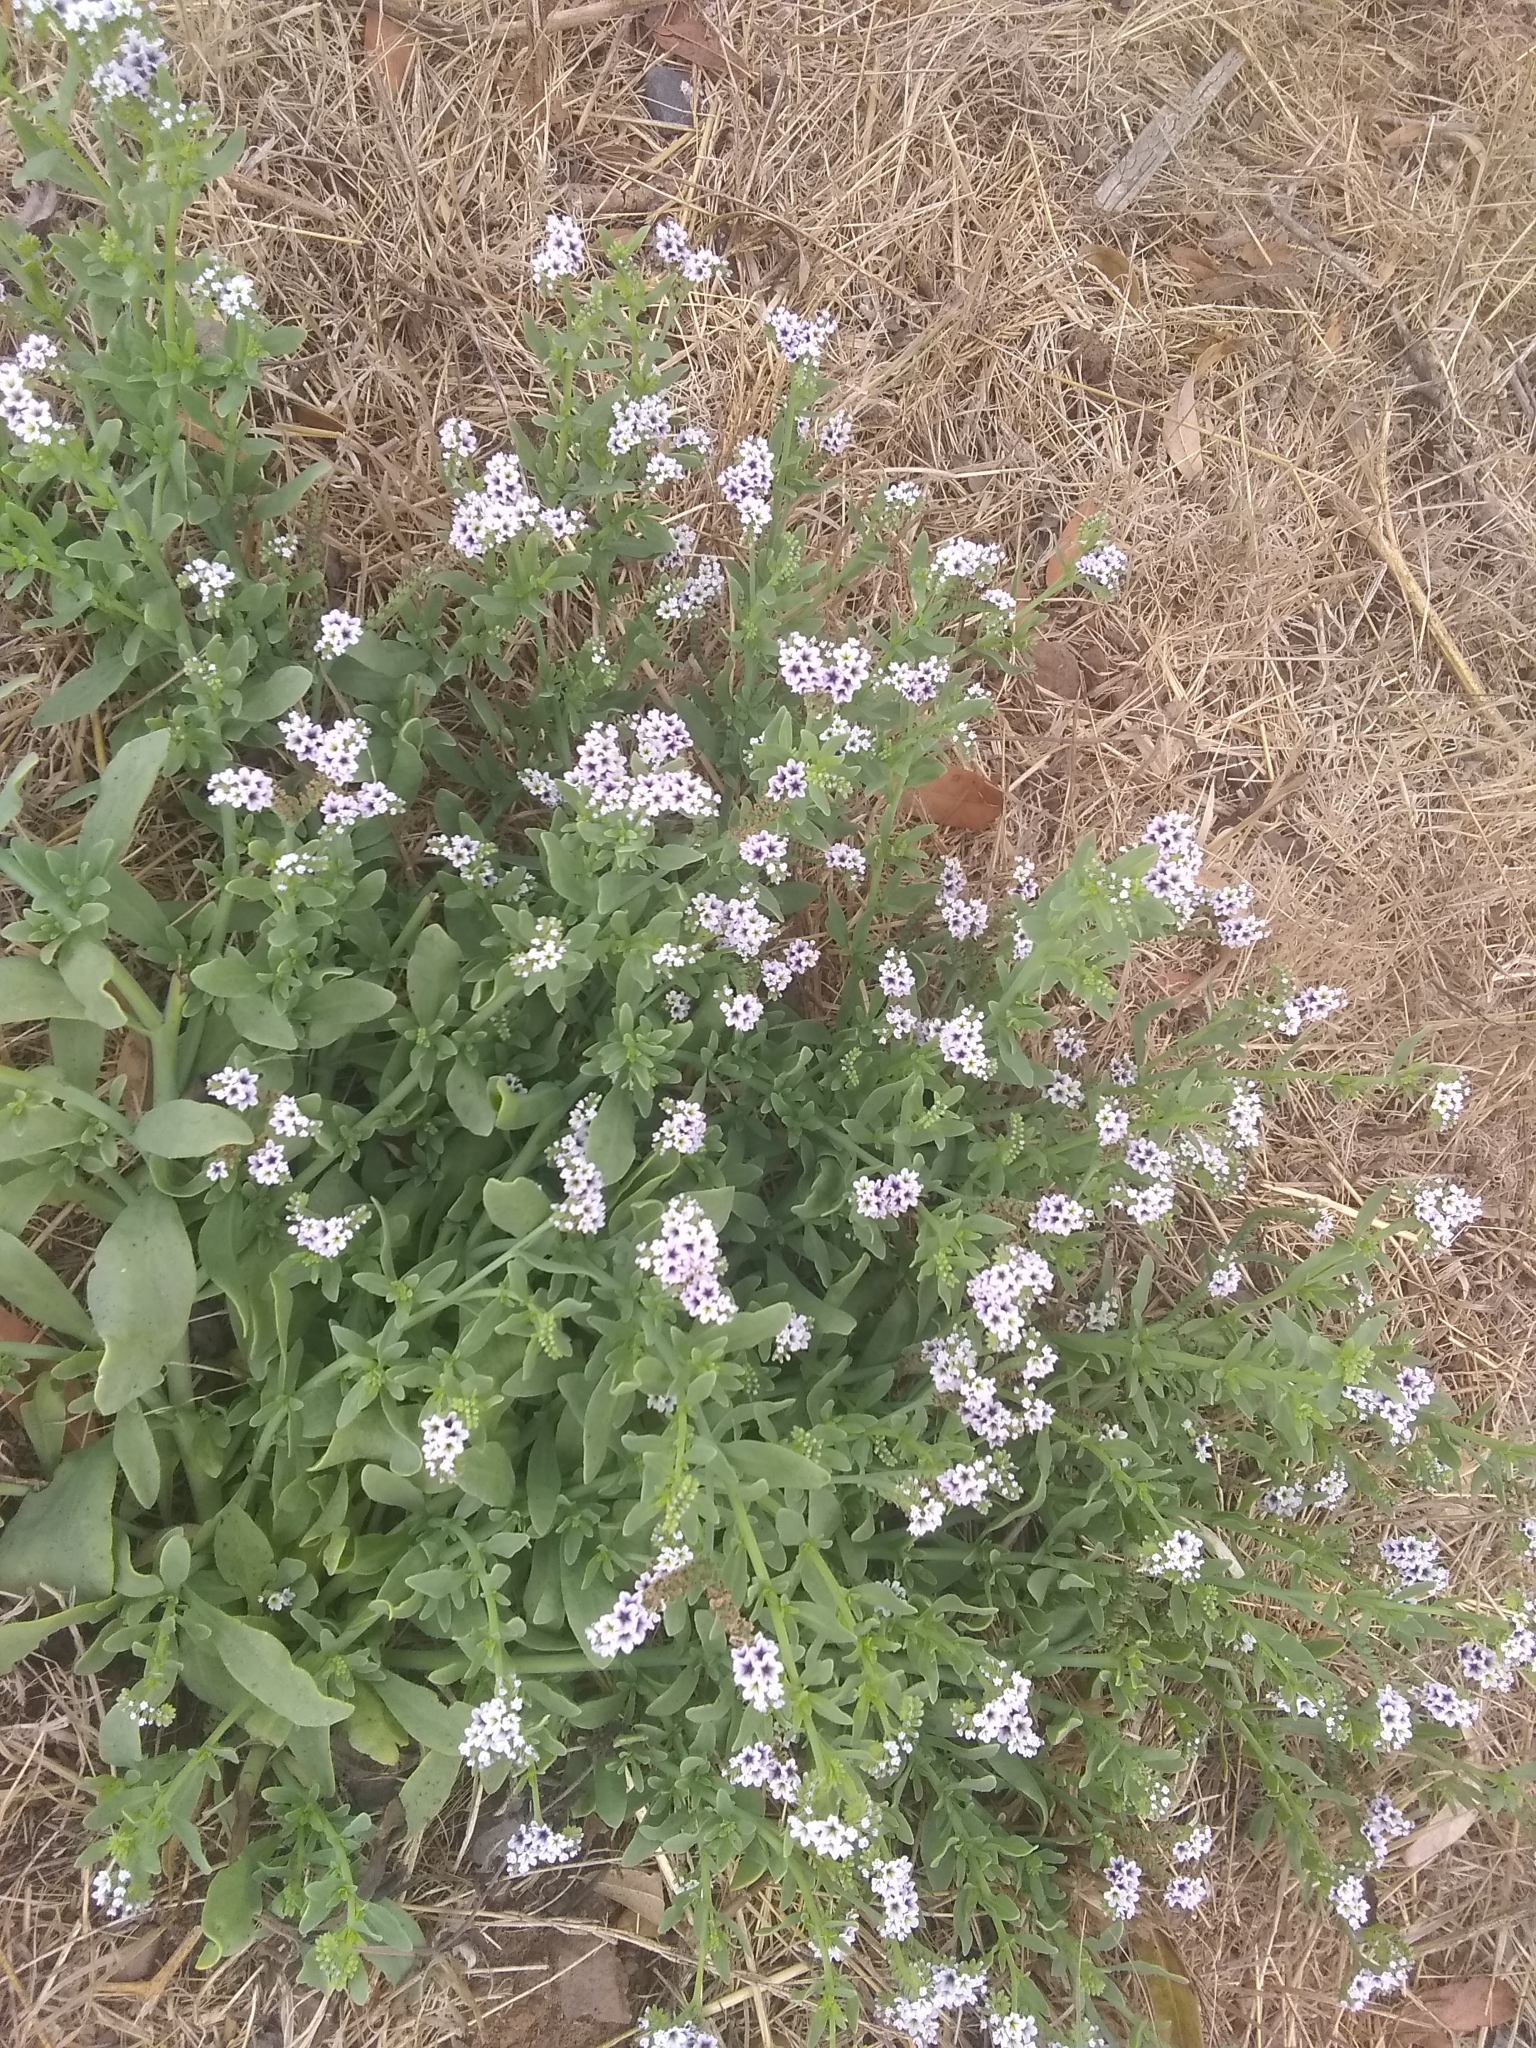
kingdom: Plantae
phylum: Tracheophyta
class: Magnoliopsida
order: Boraginales
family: Heliotropiaceae
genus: Heliotropium
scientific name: Heliotropium curassavicum
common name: Seaside heliotrope
